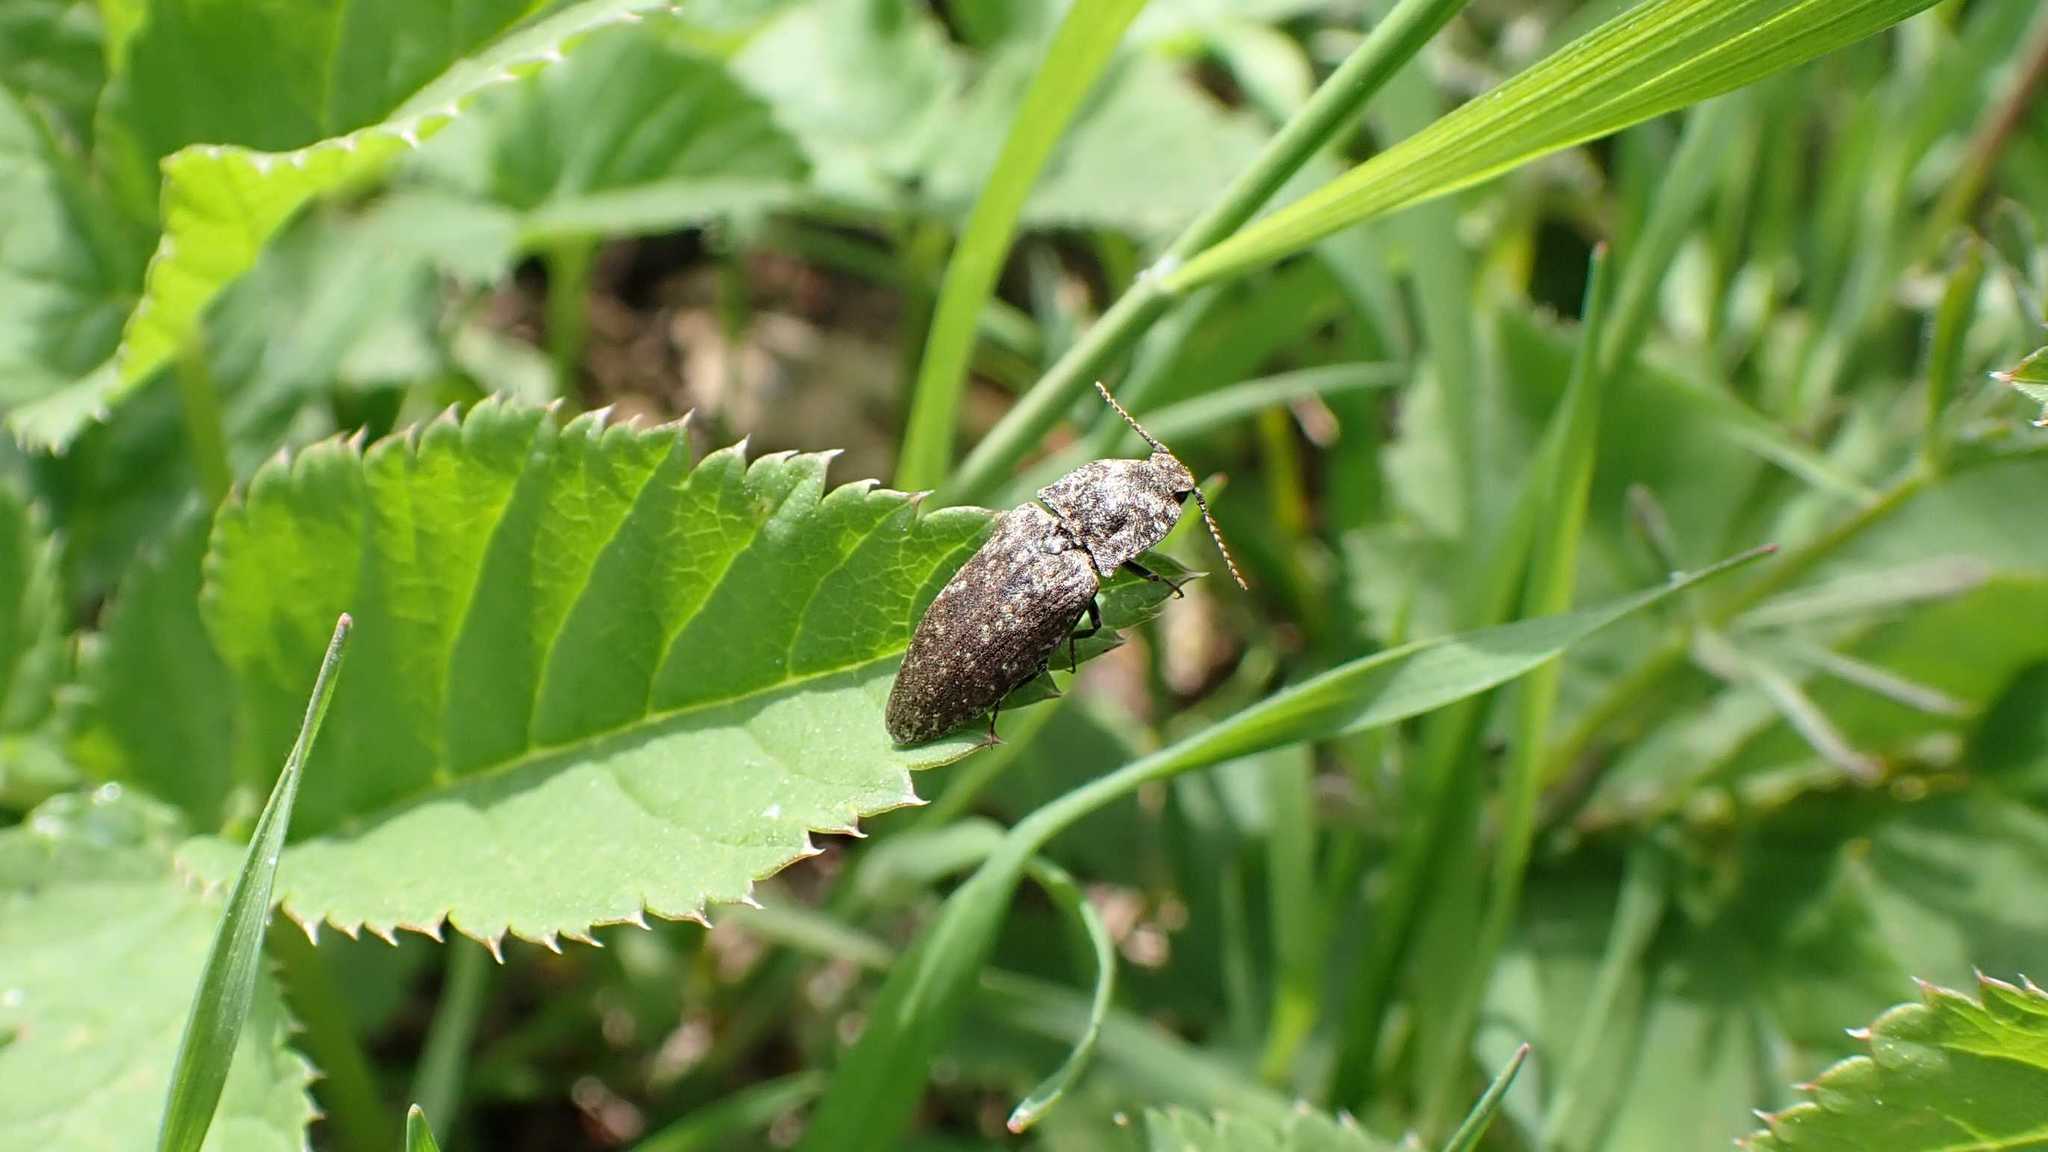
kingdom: Animalia
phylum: Arthropoda
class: Insecta
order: Coleoptera
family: Elateridae
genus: Agrypnus
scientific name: Agrypnus murinus
